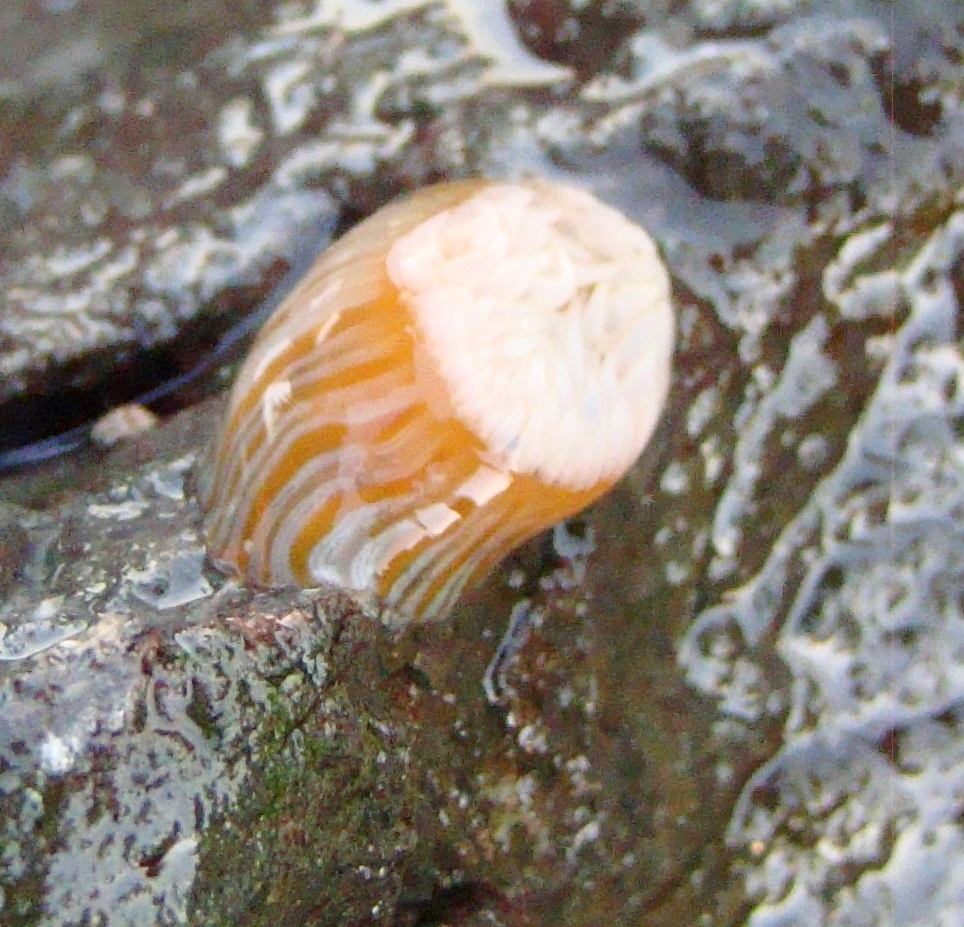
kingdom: Animalia
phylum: Cnidaria
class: Anthozoa
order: Actiniaria
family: Sagartiidae
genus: Anthothoe
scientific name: Anthothoe albocincta
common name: Orange striped anemone
